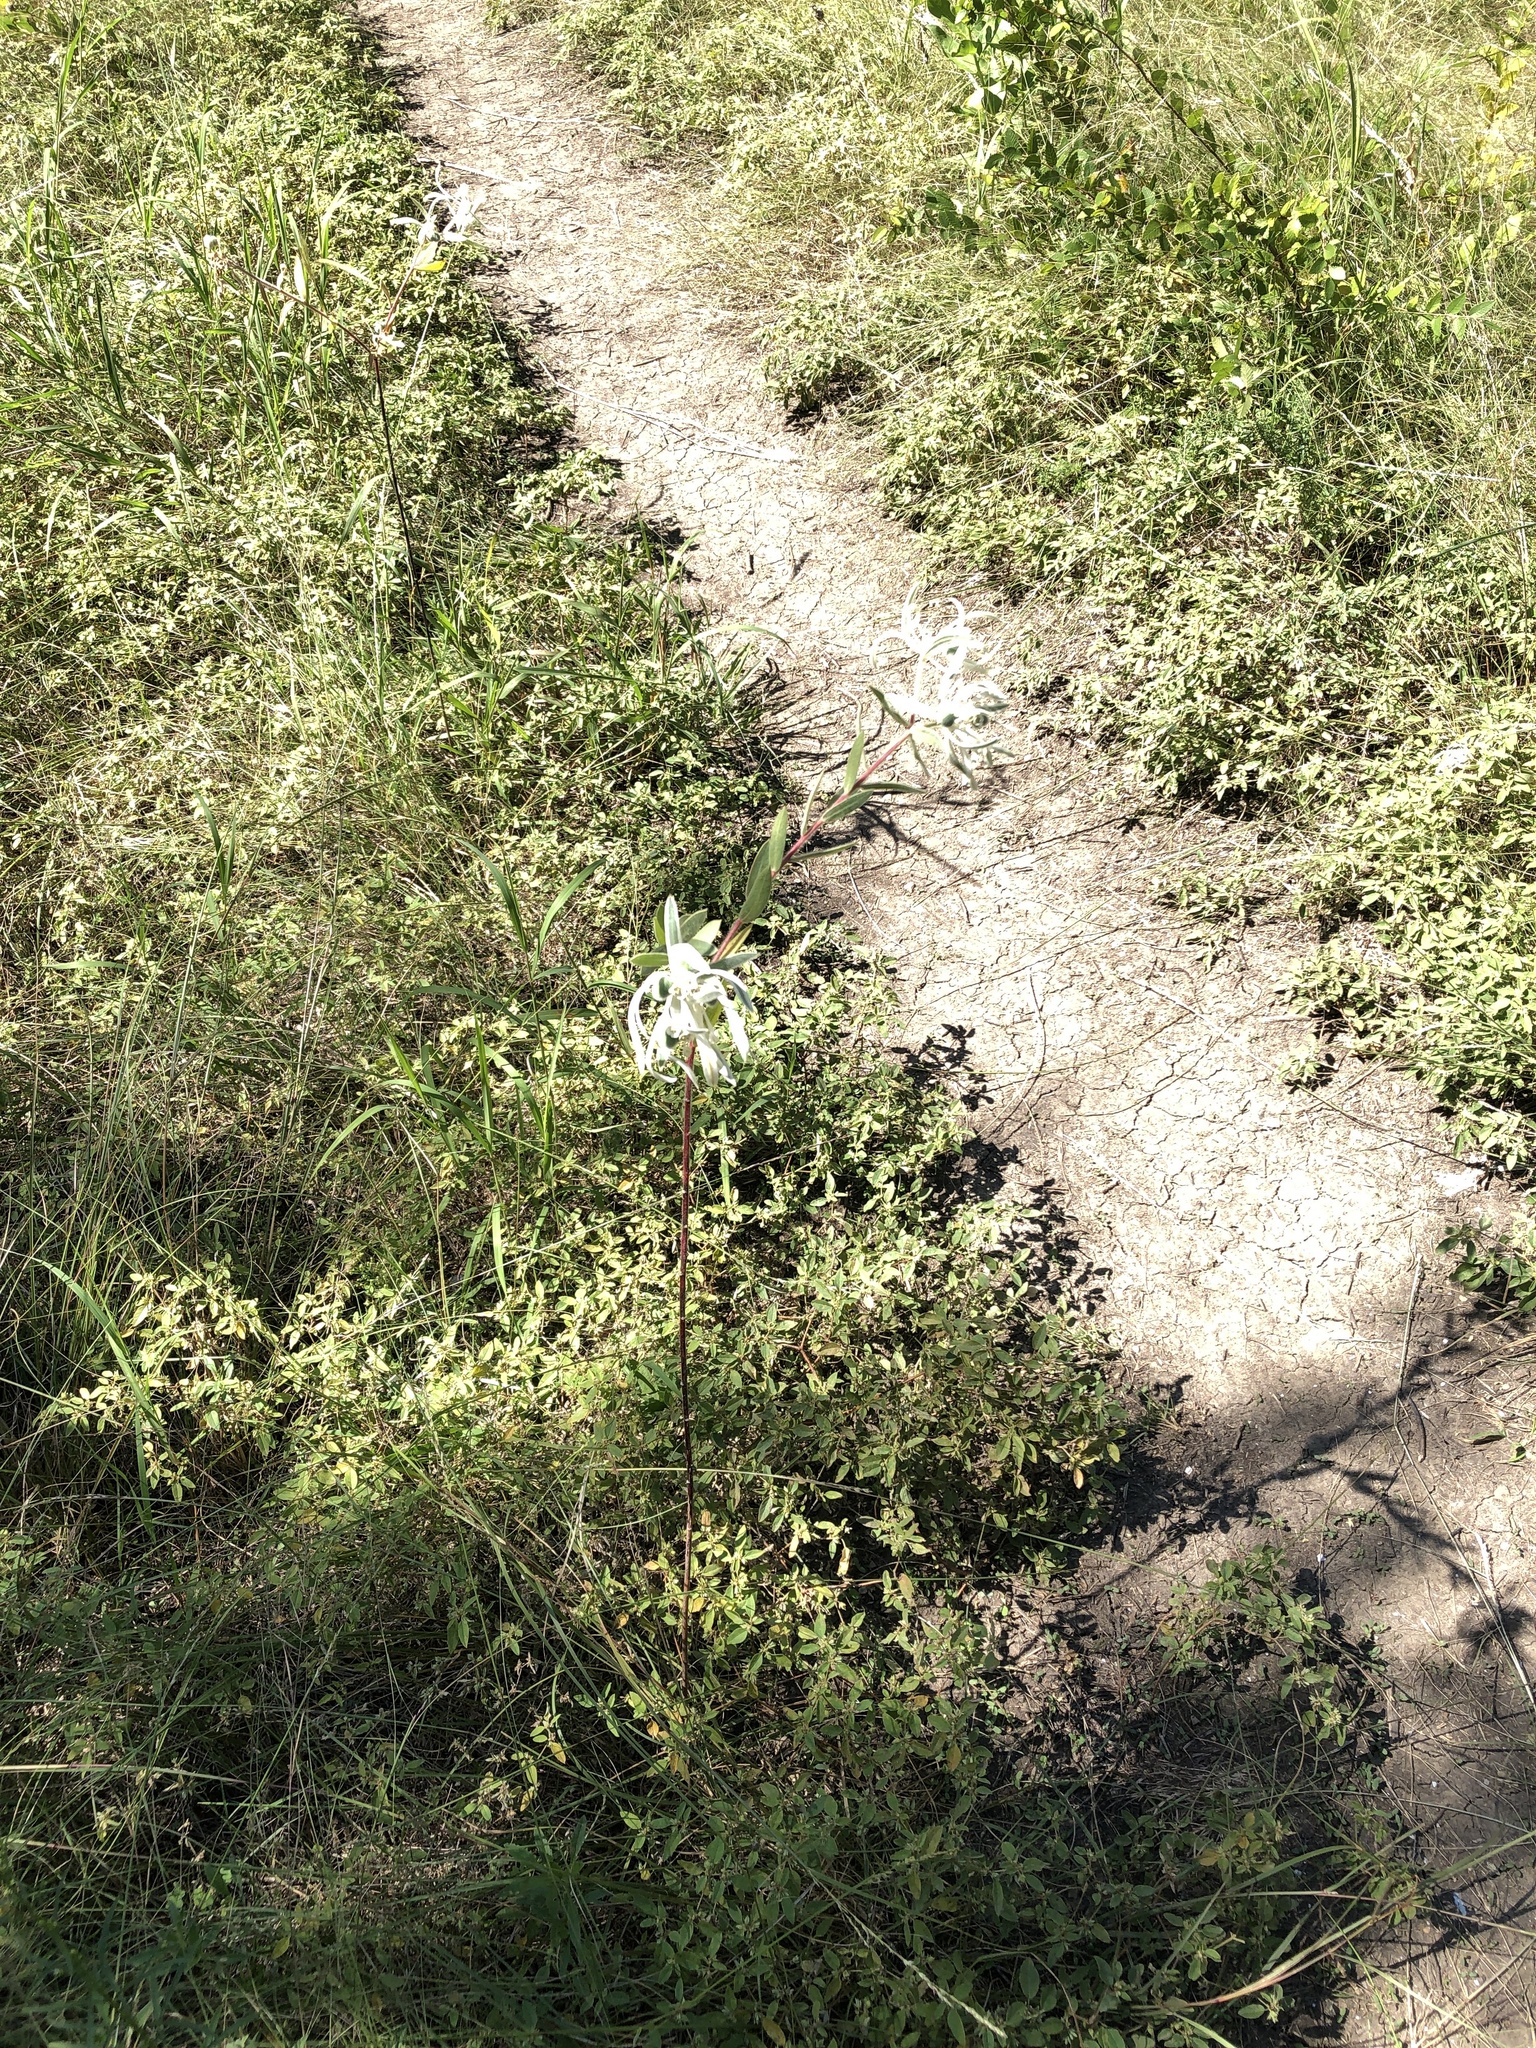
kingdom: Plantae
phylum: Tracheophyta
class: Magnoliopsida
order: Malpighiales
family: Euphorbiaceae
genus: Euphorbia
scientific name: Euphorbia bicolor
